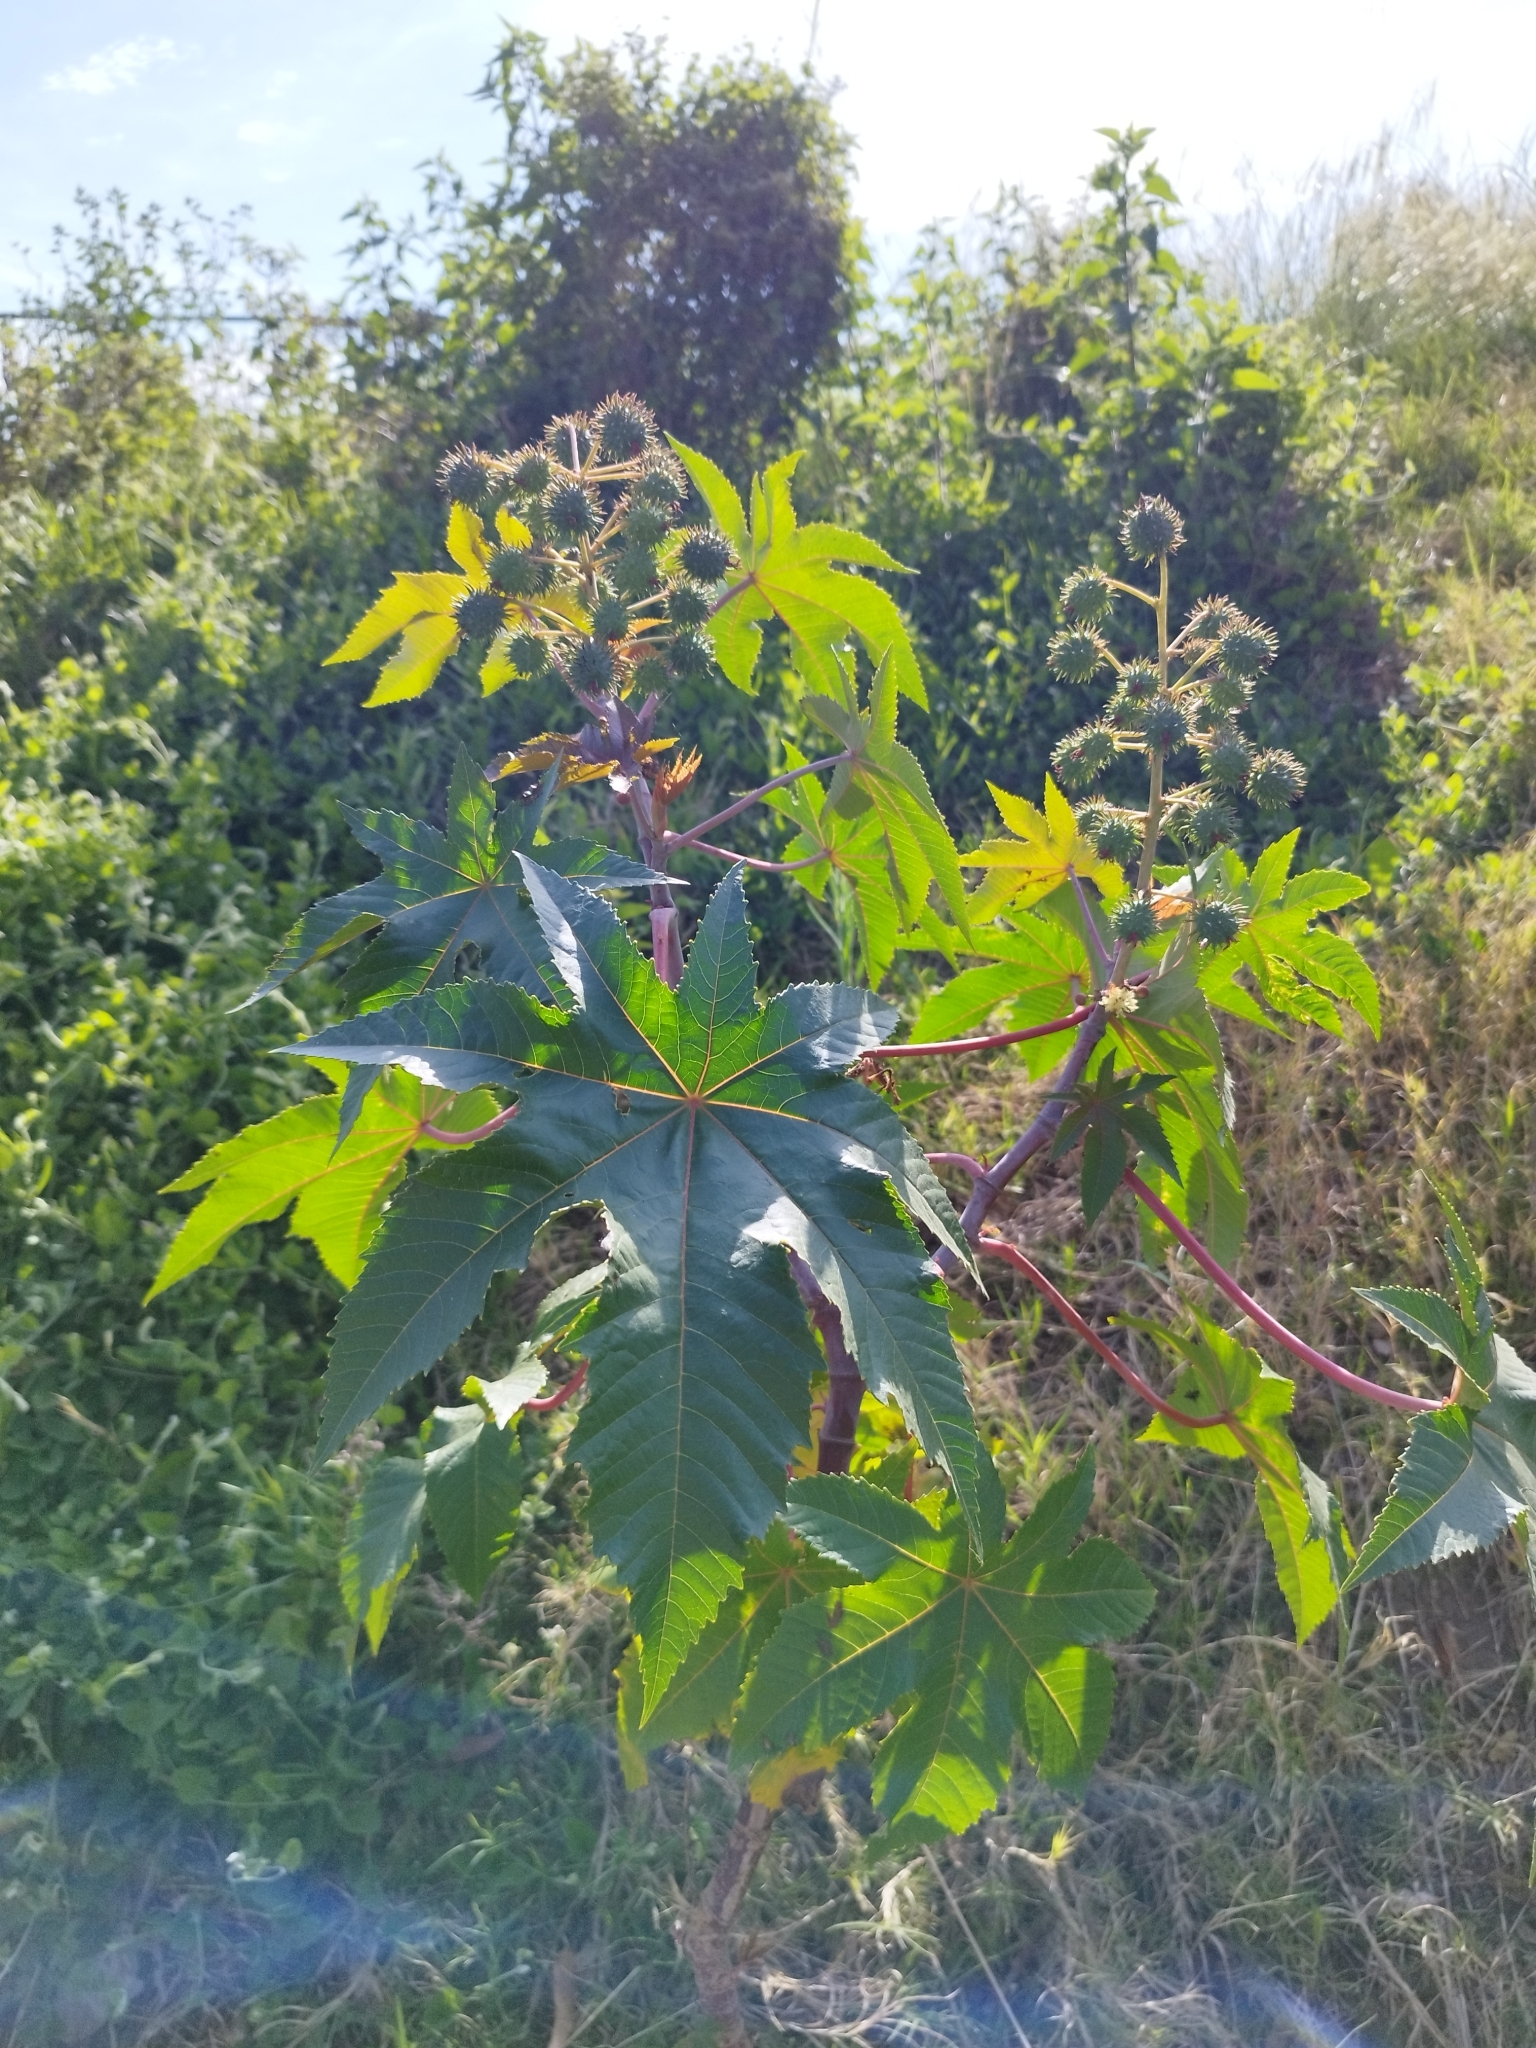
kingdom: Plantae
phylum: Tracheophyta
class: Magnoliopsida
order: Malpighiales
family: Euphorbiaceae
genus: Ricinus
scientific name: Ricinus communis
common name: Castor-oil-plant
